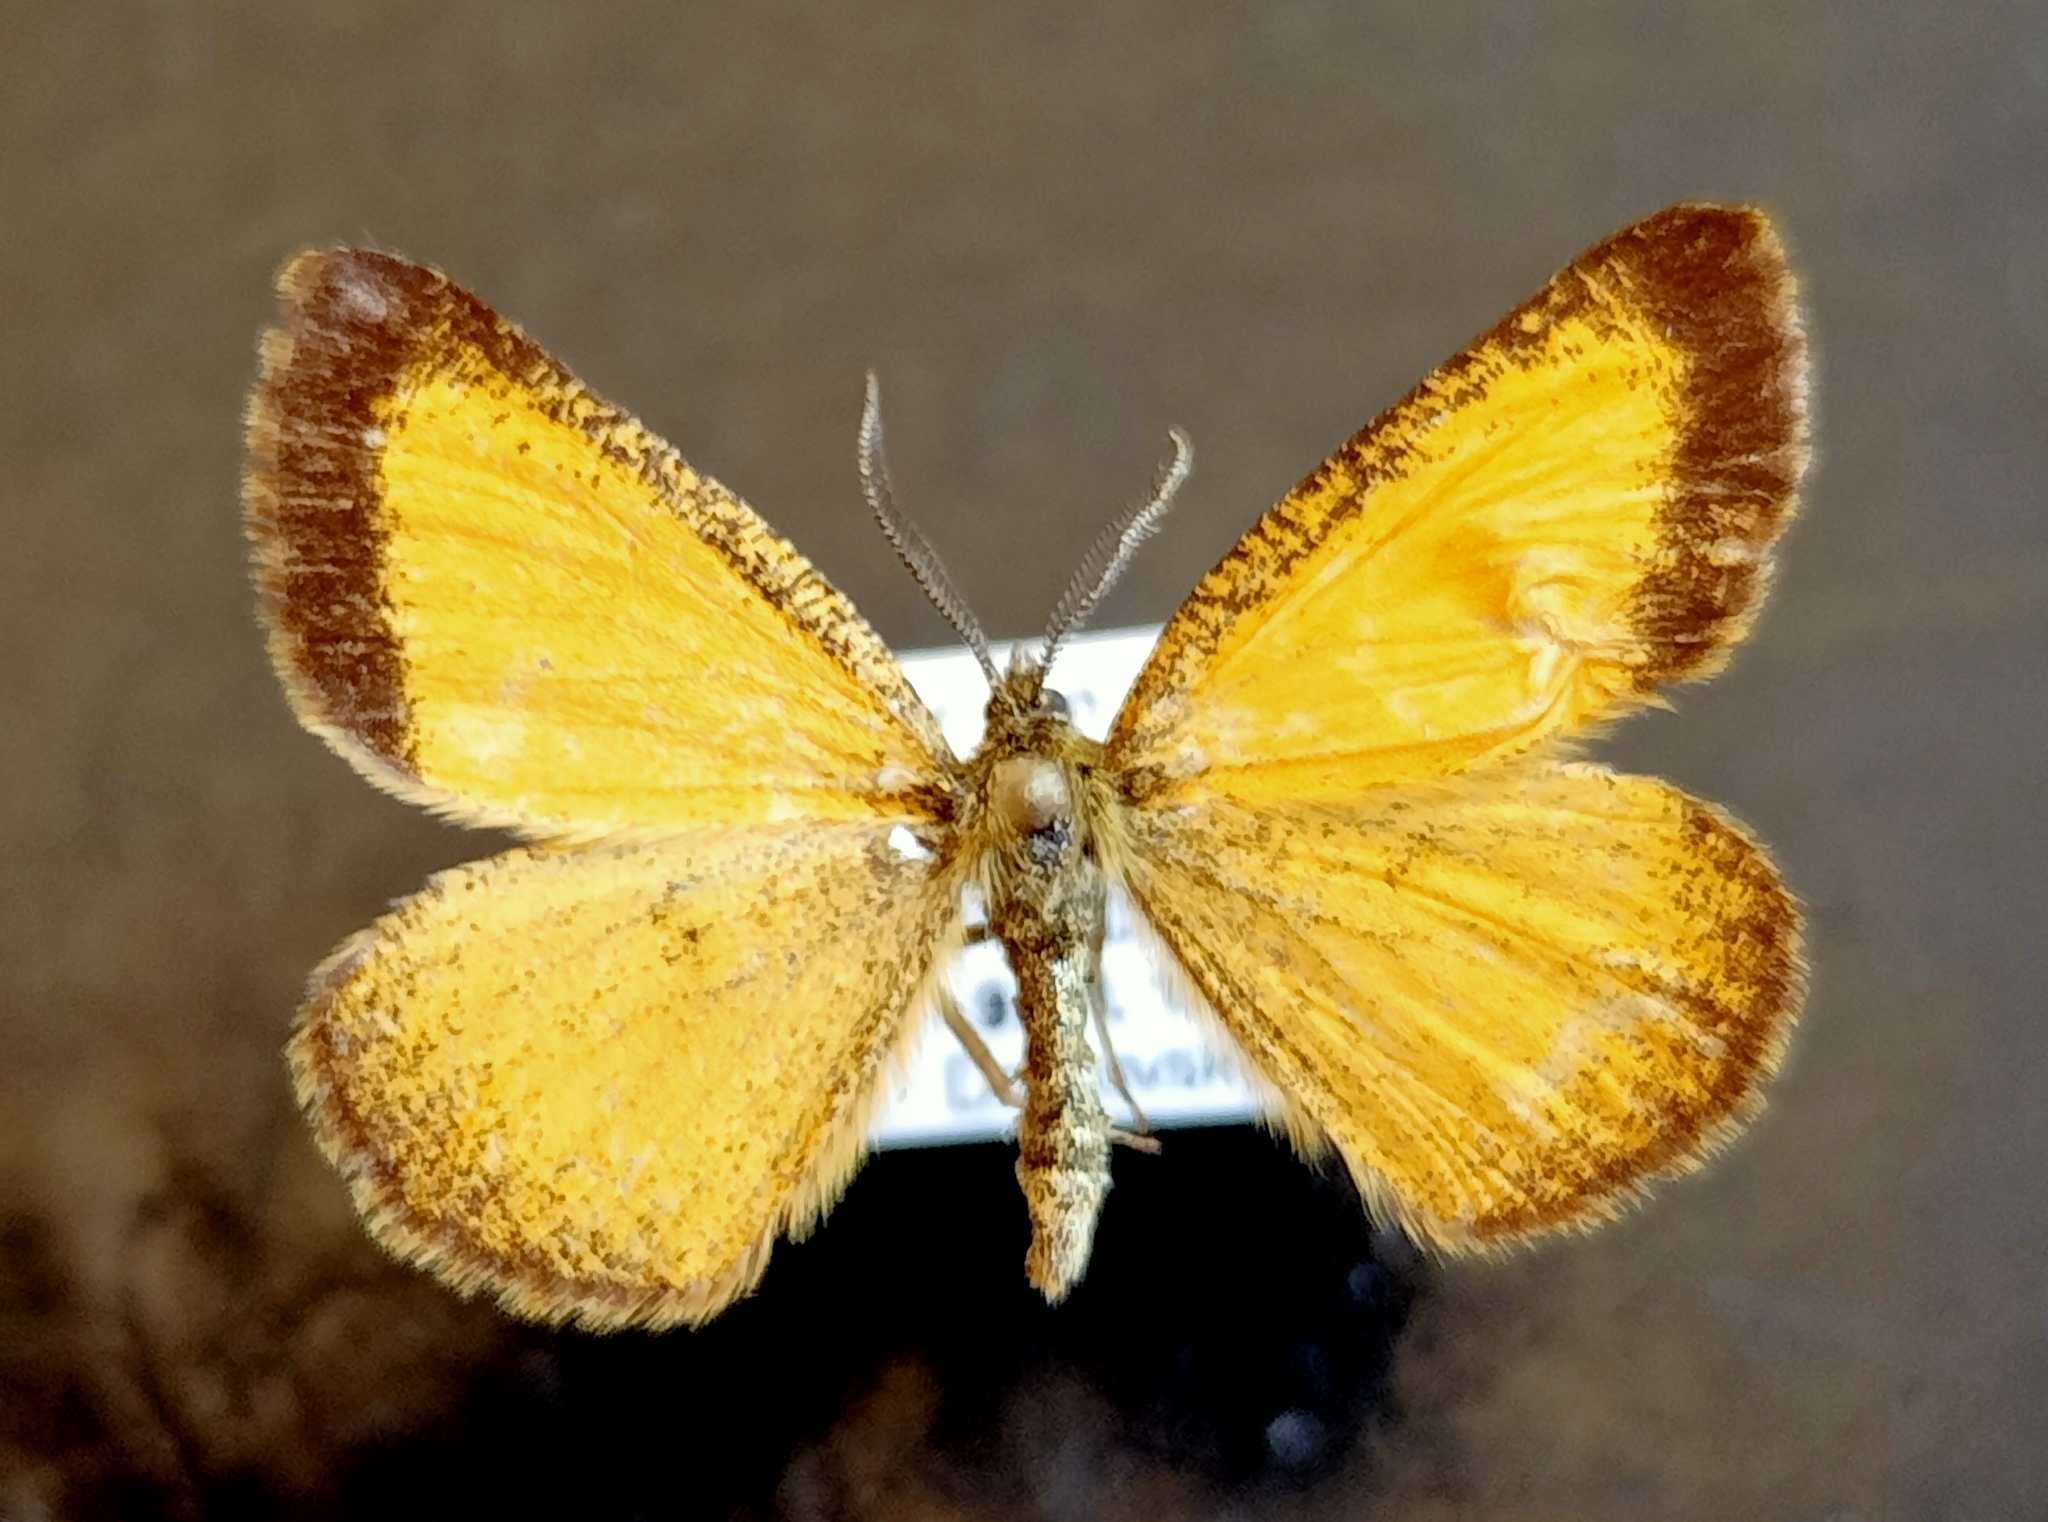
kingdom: Animalia
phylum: Arthropoda
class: Insecta
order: Lepidoptera
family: Geometridae
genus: Isturgia
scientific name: Isturgia limbaria
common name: Frosted yellow
